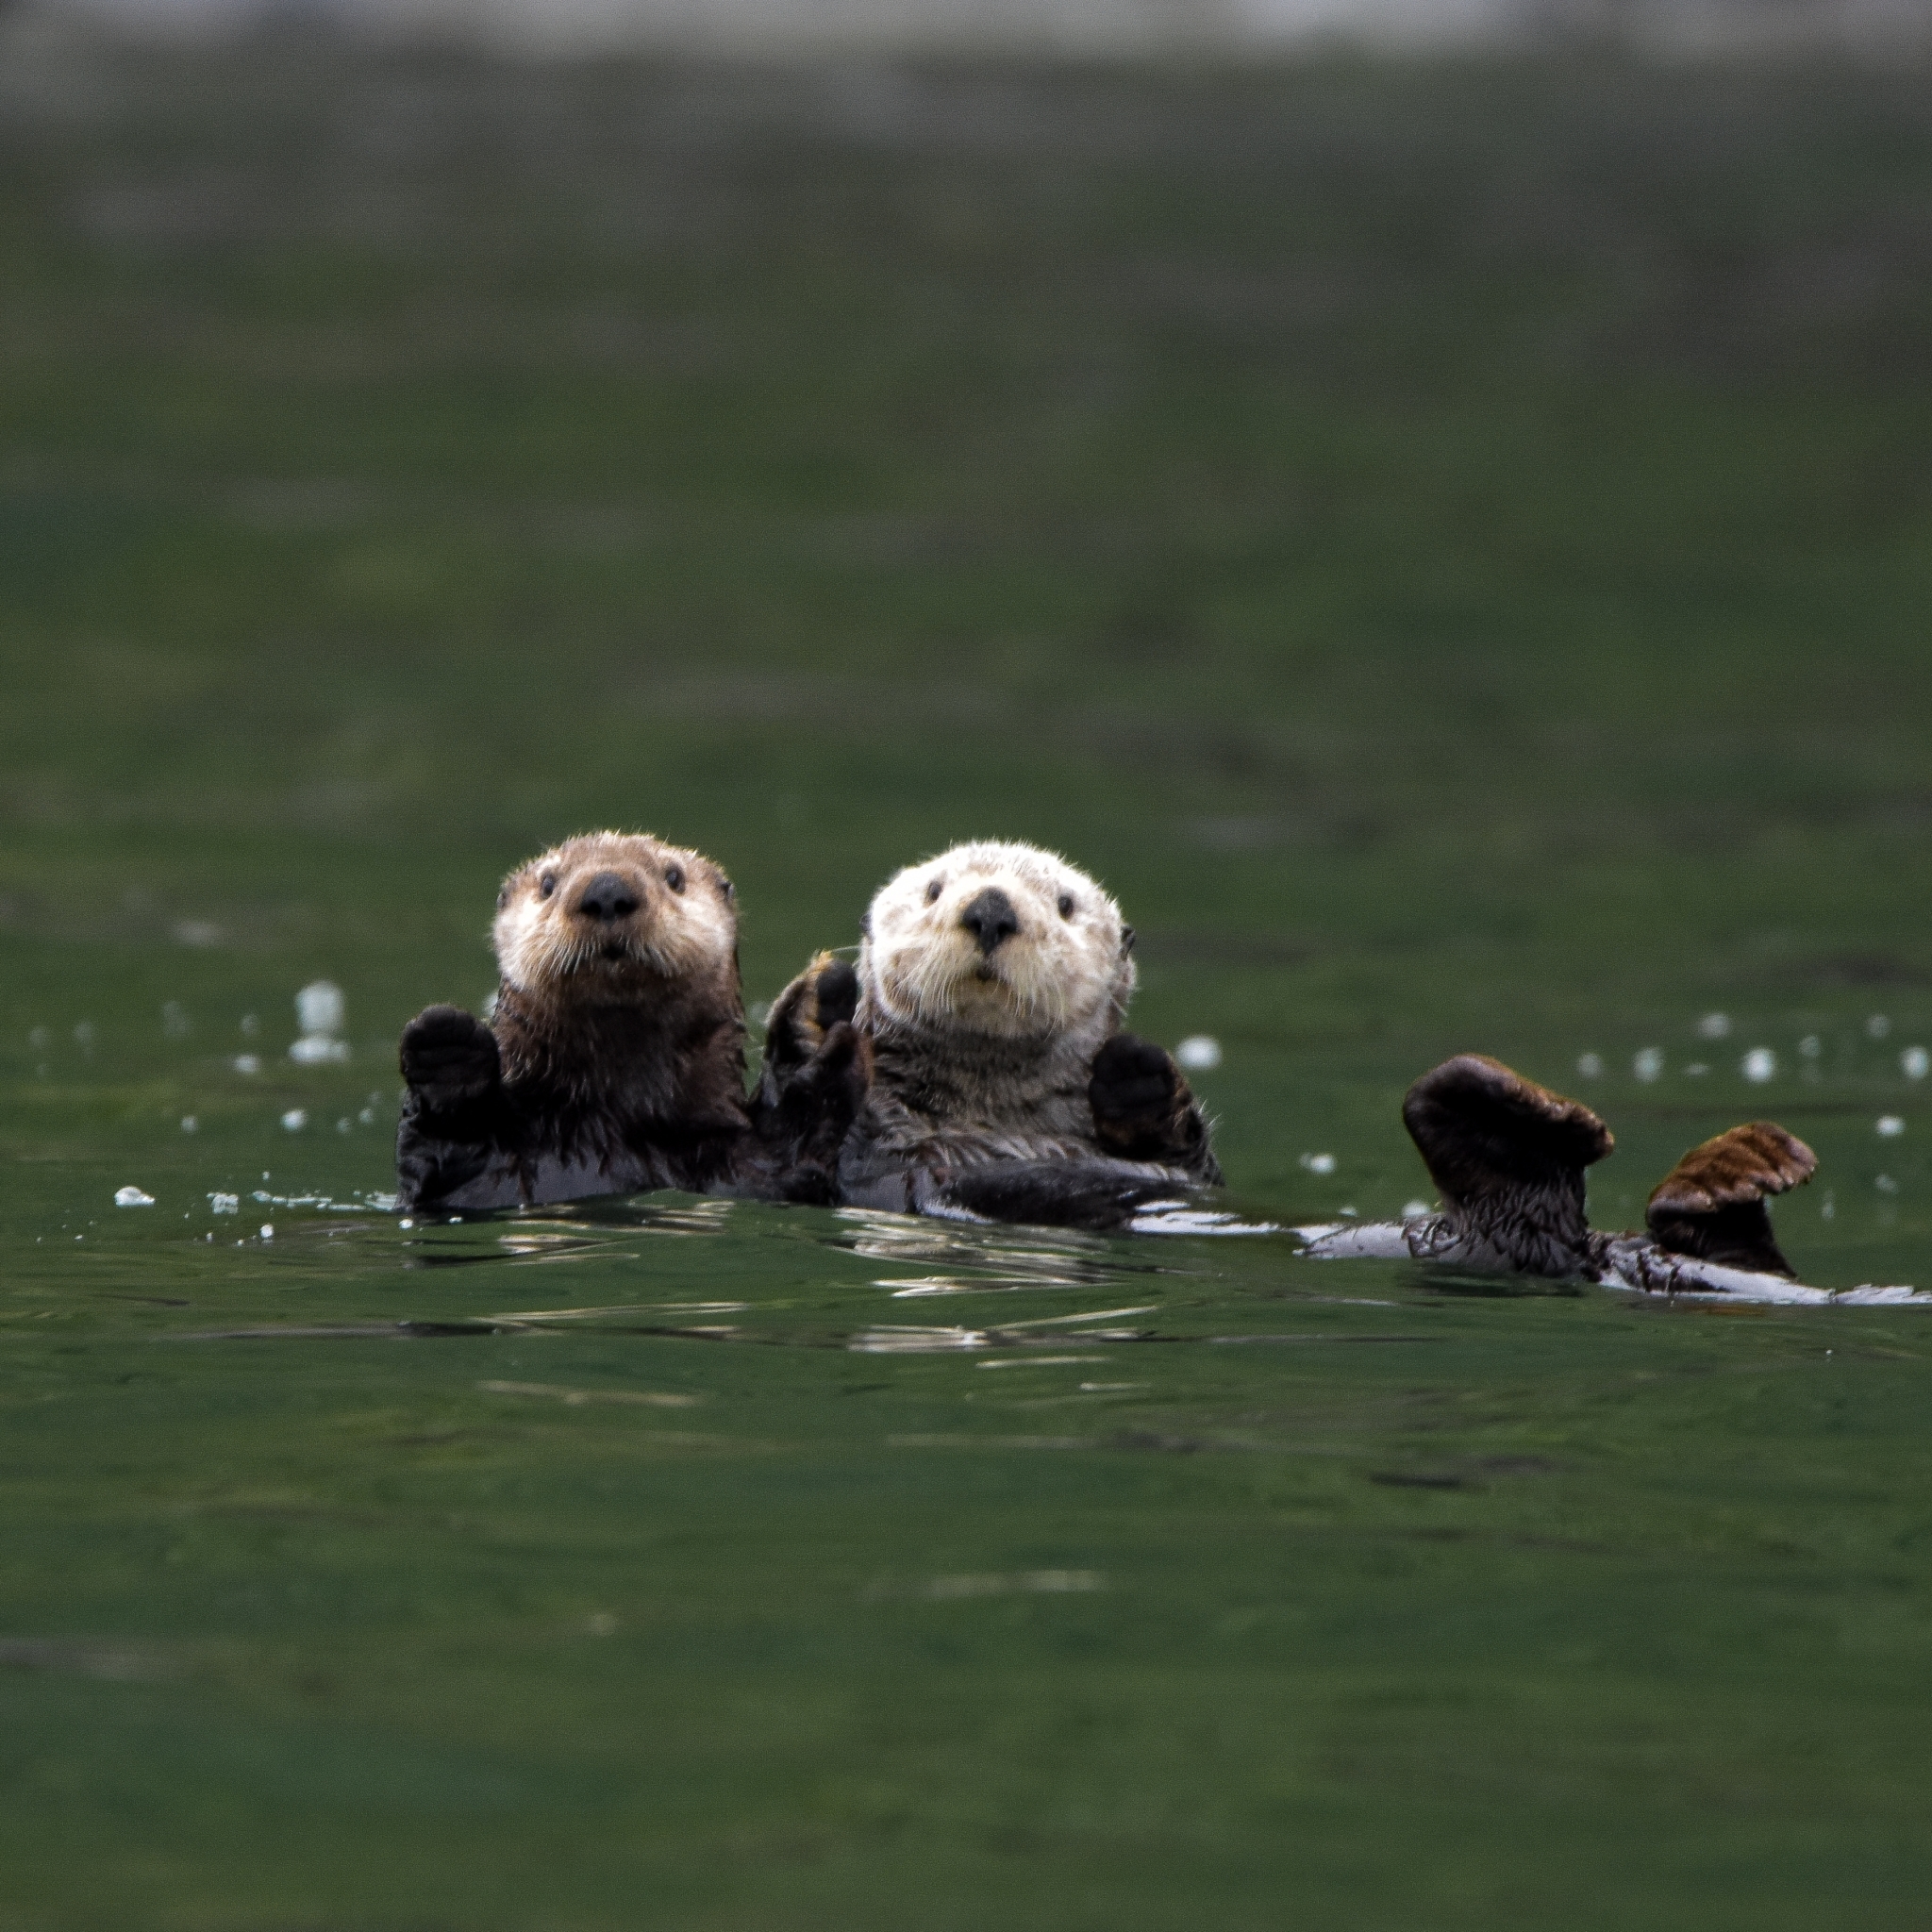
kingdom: Animalia
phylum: Chordata
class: Mammalia
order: Carnivora
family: Mustelidae
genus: Enhydra
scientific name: Enhydra lutris
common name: Sea otter
